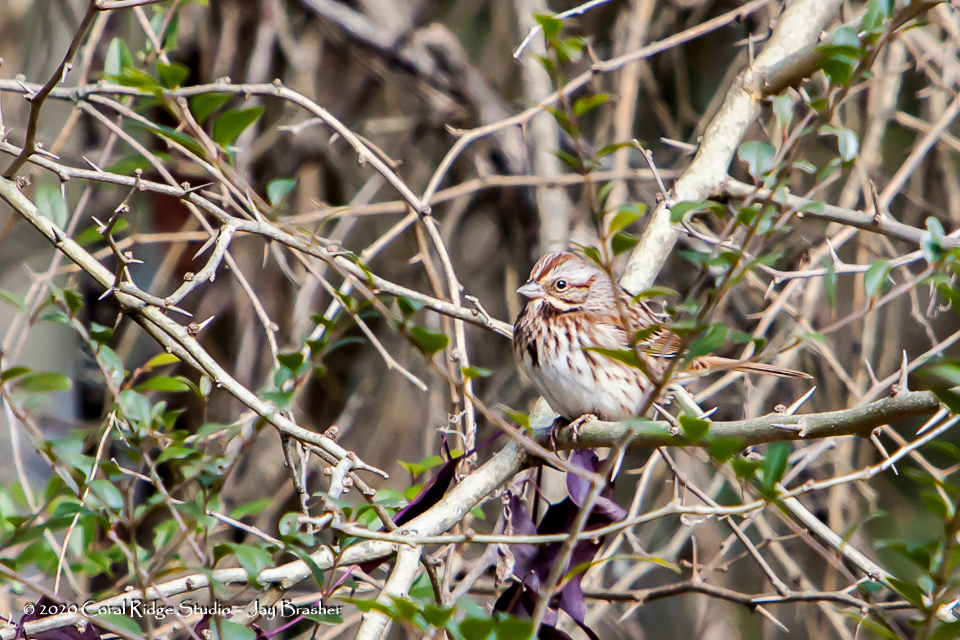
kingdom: Animalia
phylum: Chordata
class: Aves
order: Passeriformes
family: Passerellidae
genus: Melospiza
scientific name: Melospiza melodia
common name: Song sparrow
